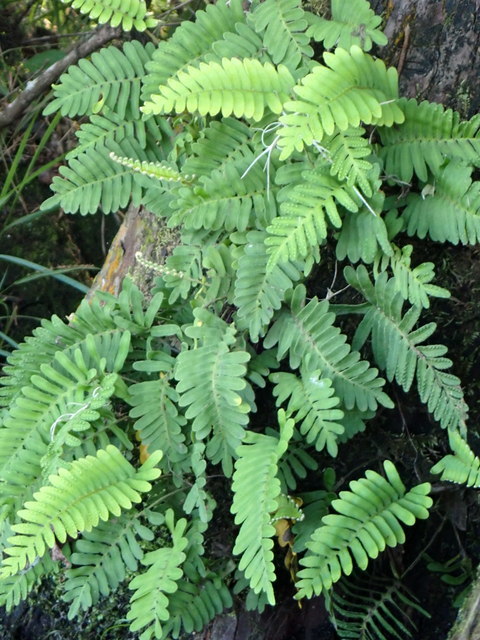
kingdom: Plantae
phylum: Tracheophyta
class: Polypodiopsida
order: Polypodiales
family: Polypodiaceae
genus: Pleopeltis
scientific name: Pleopeltis michauxiana
